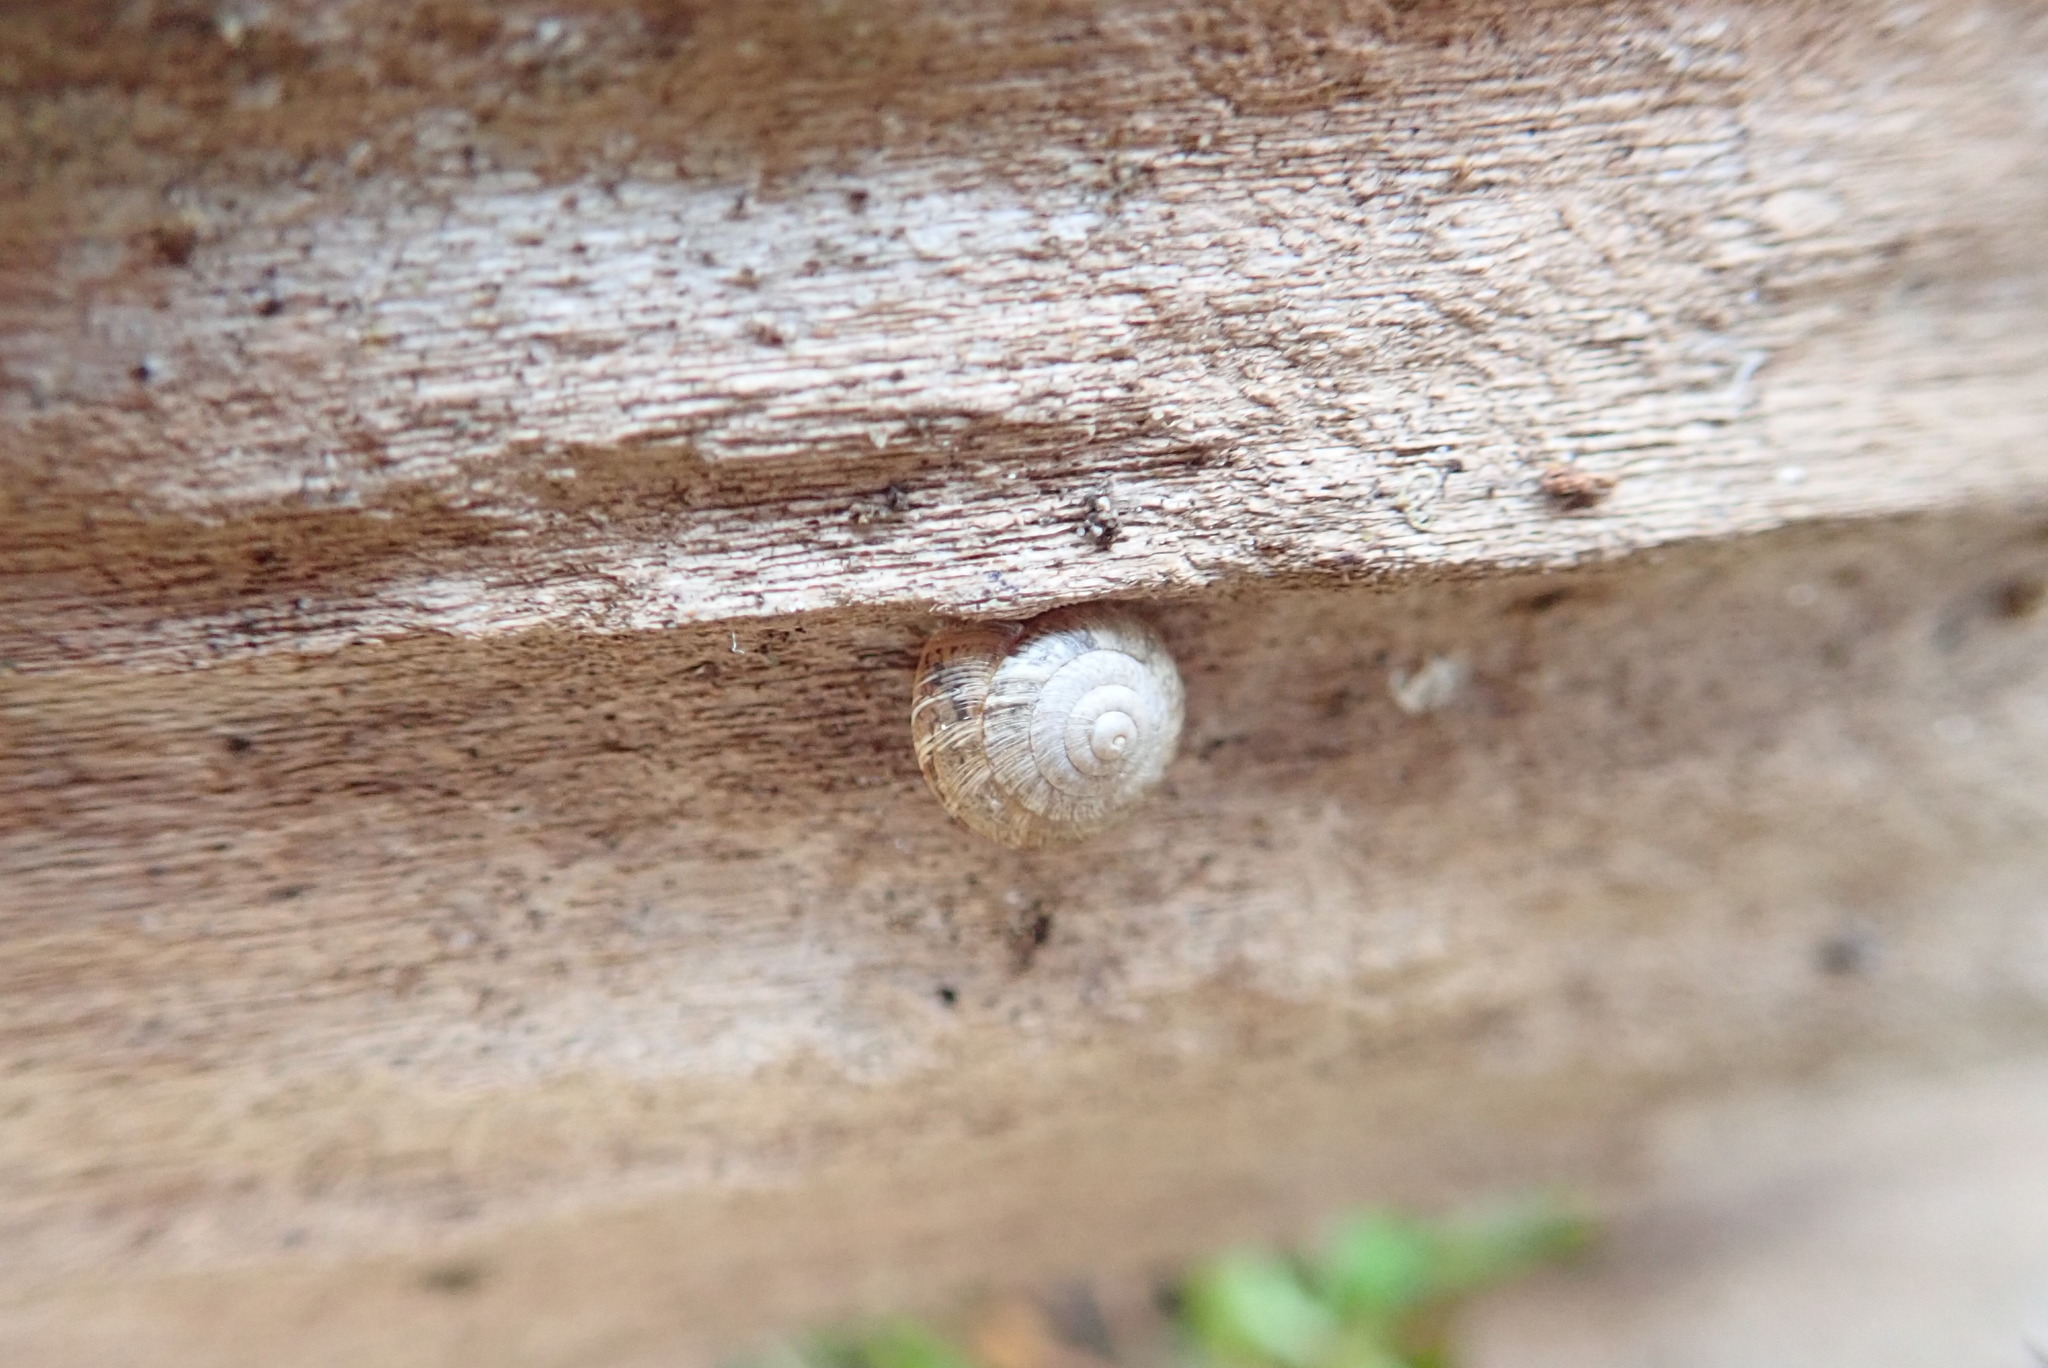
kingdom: Animalia
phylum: Mollusca
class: Gastropoda
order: Stylommatophora
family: Geomitridae
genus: Xeroplexa
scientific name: Xeroplexa intersecta
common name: Wrinkled snail
